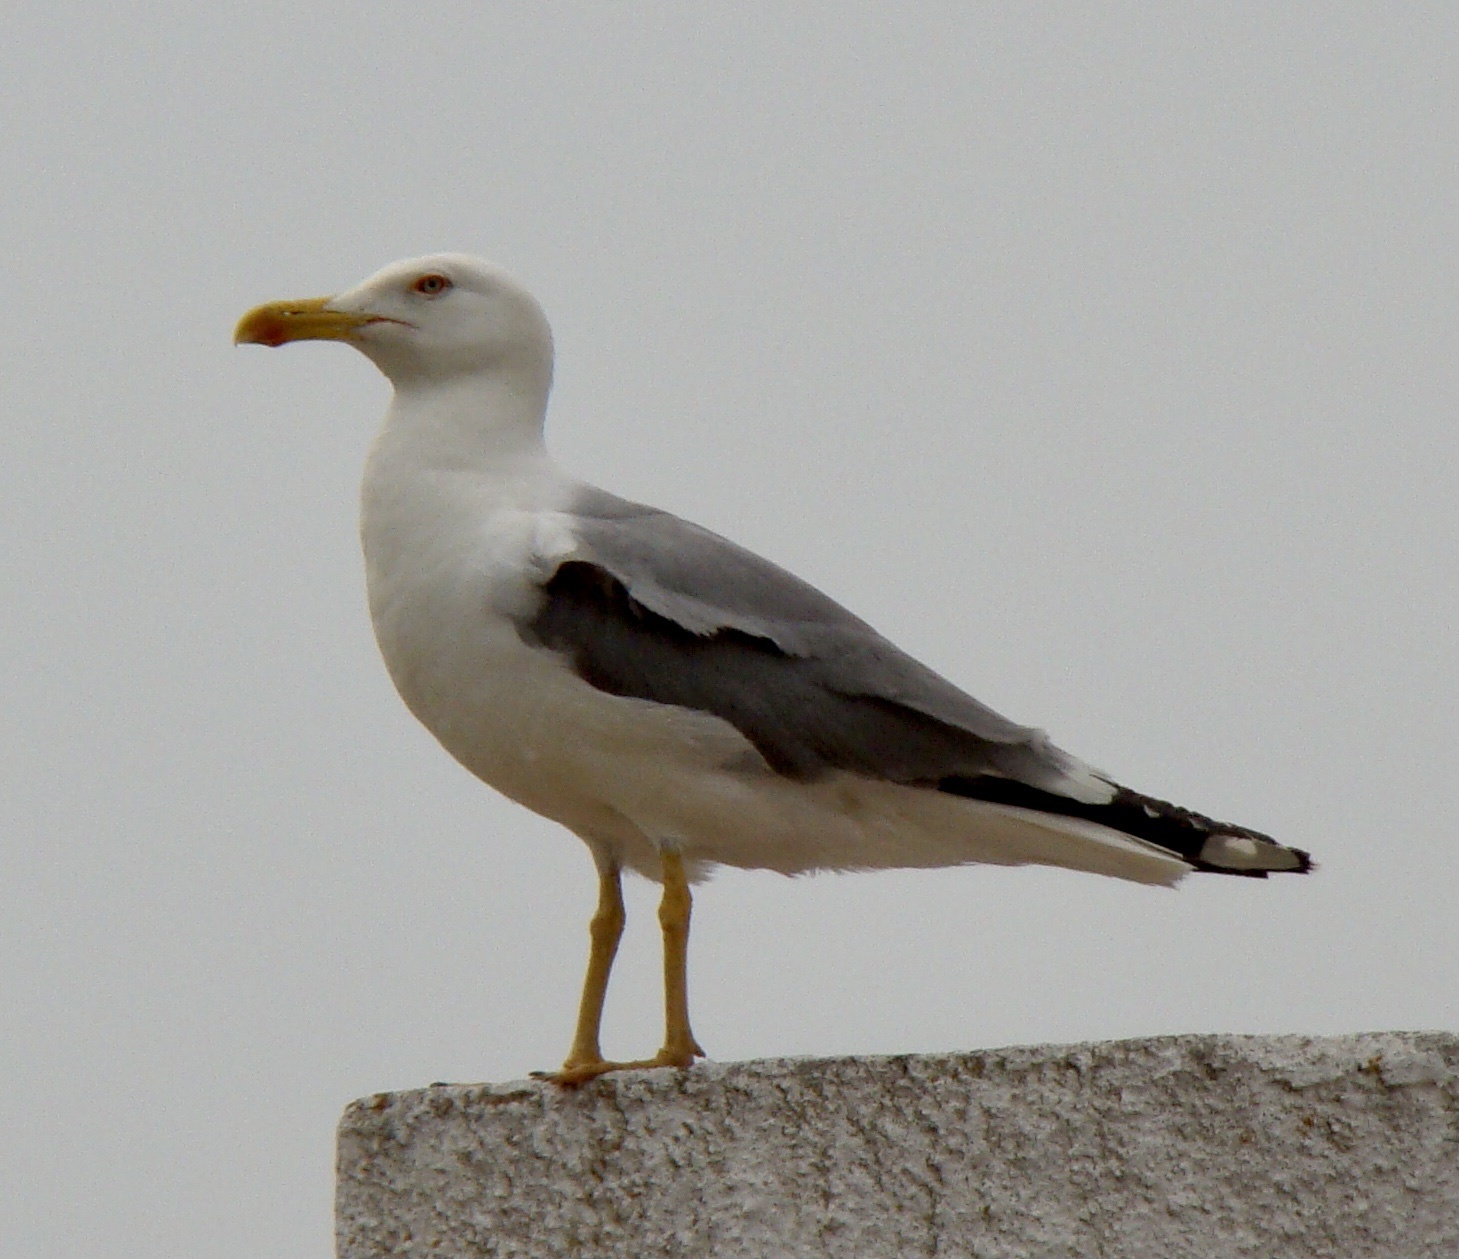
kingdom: Animalia
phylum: Chordata
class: Aves
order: Charadriiformes
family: Laridae
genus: Larus
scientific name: Larus michahellis
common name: Yellow-legged gull
